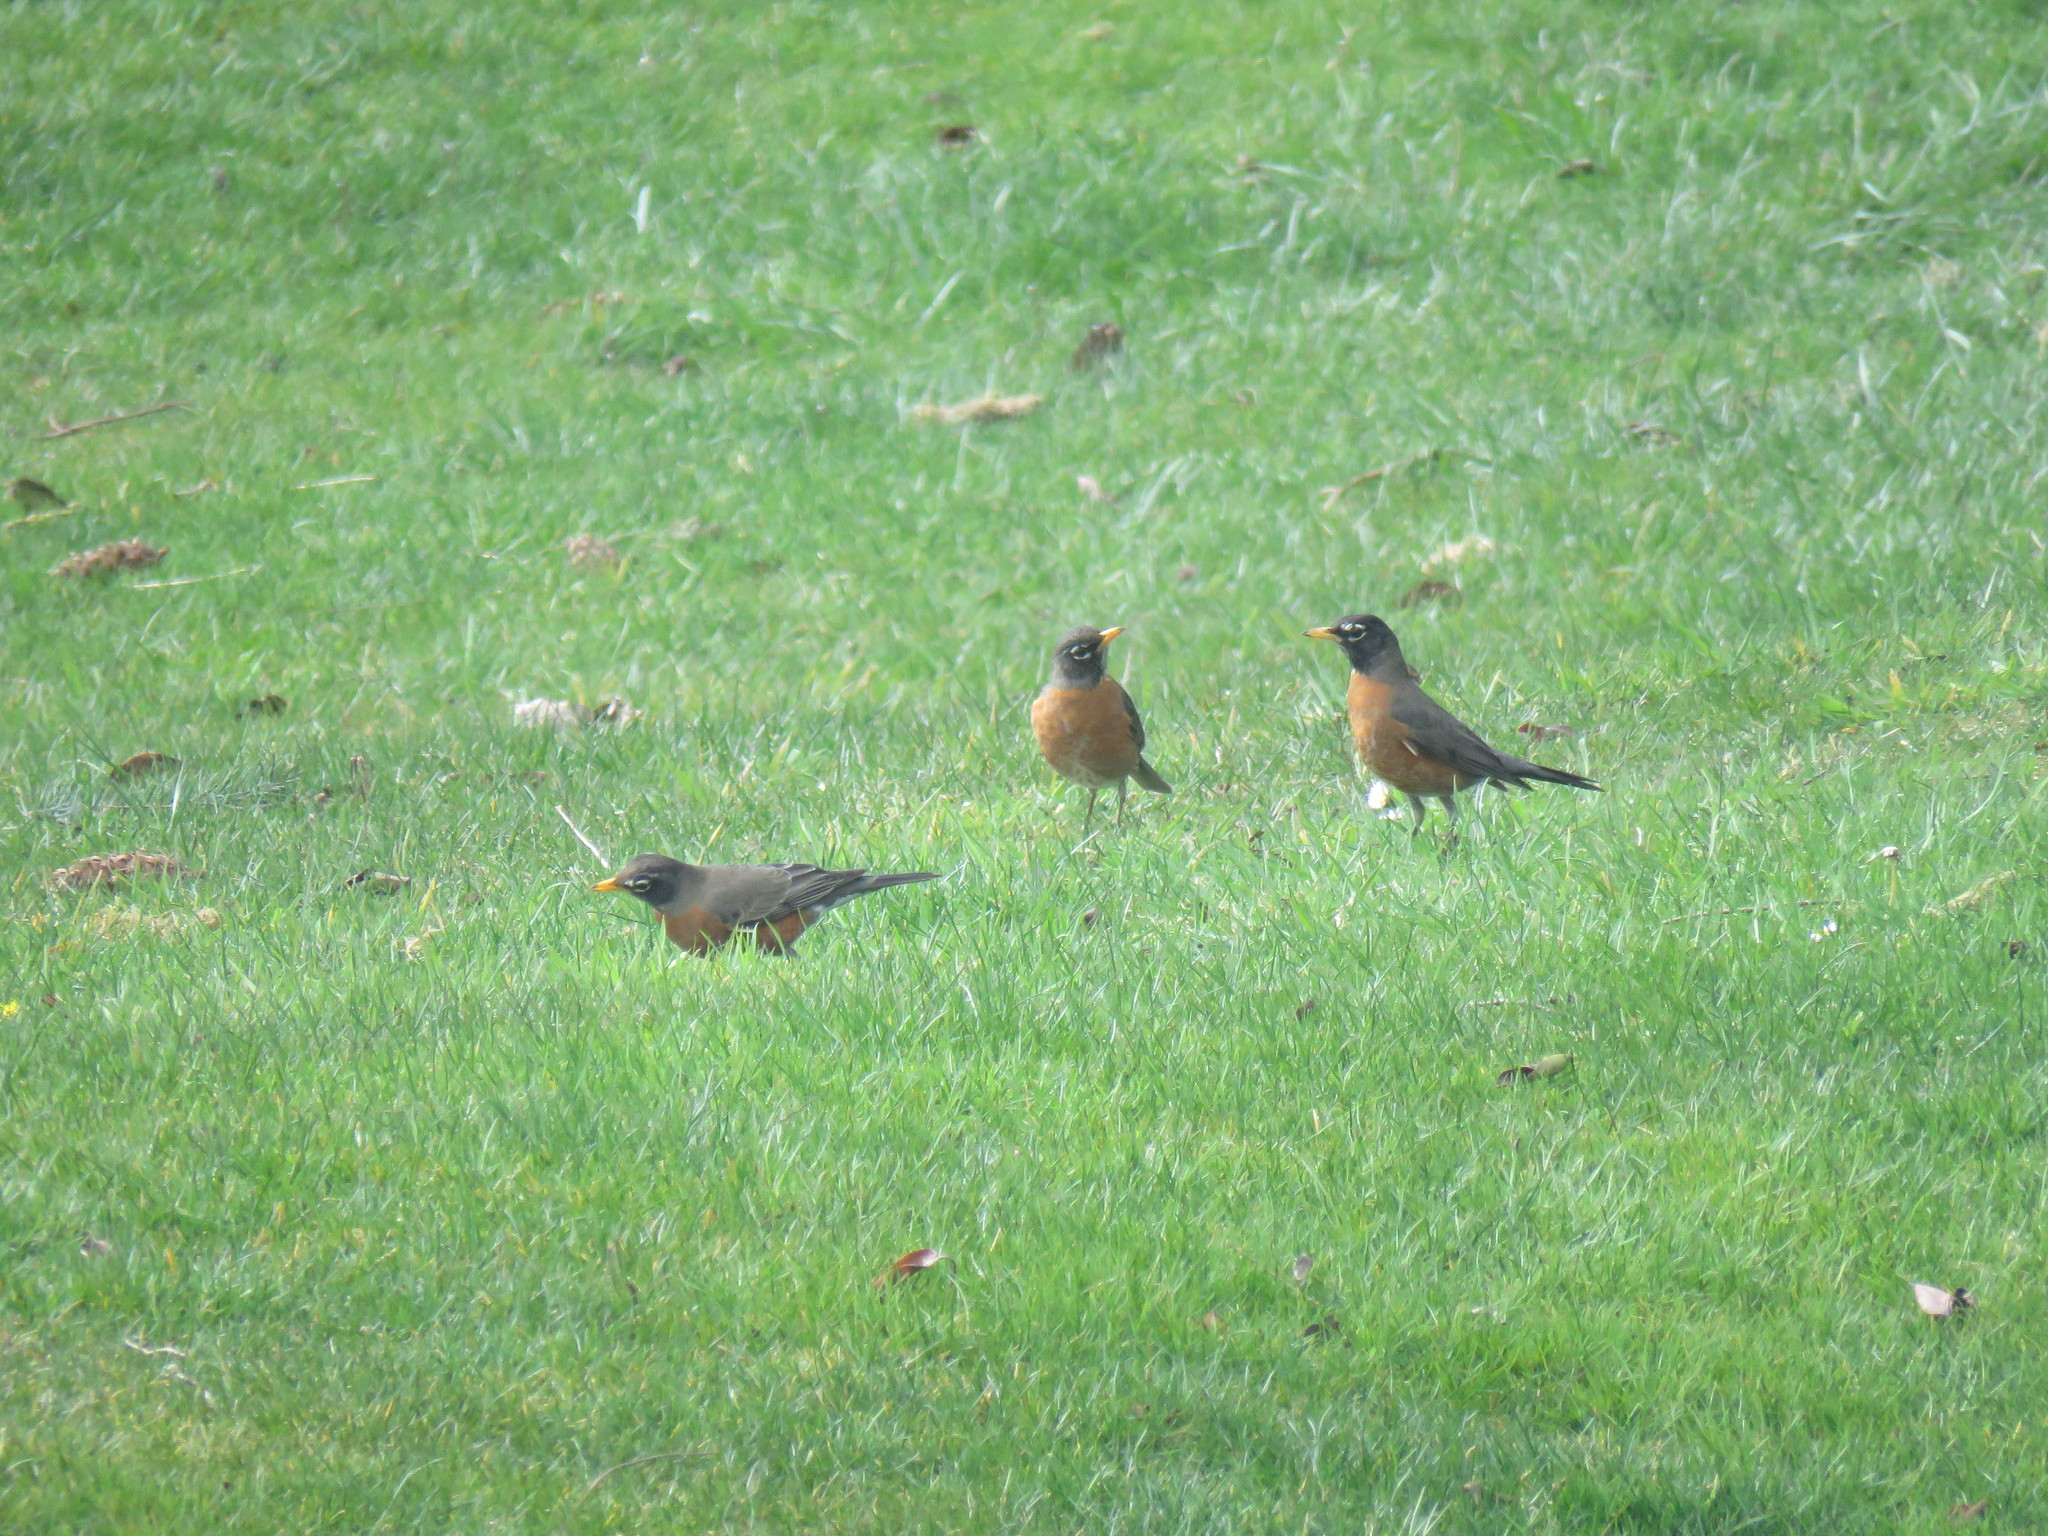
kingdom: Animalia
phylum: Chordata
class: Aves
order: Passeriformes
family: Turdidae
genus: Turdus
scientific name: Turdus migratorius
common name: American robin
